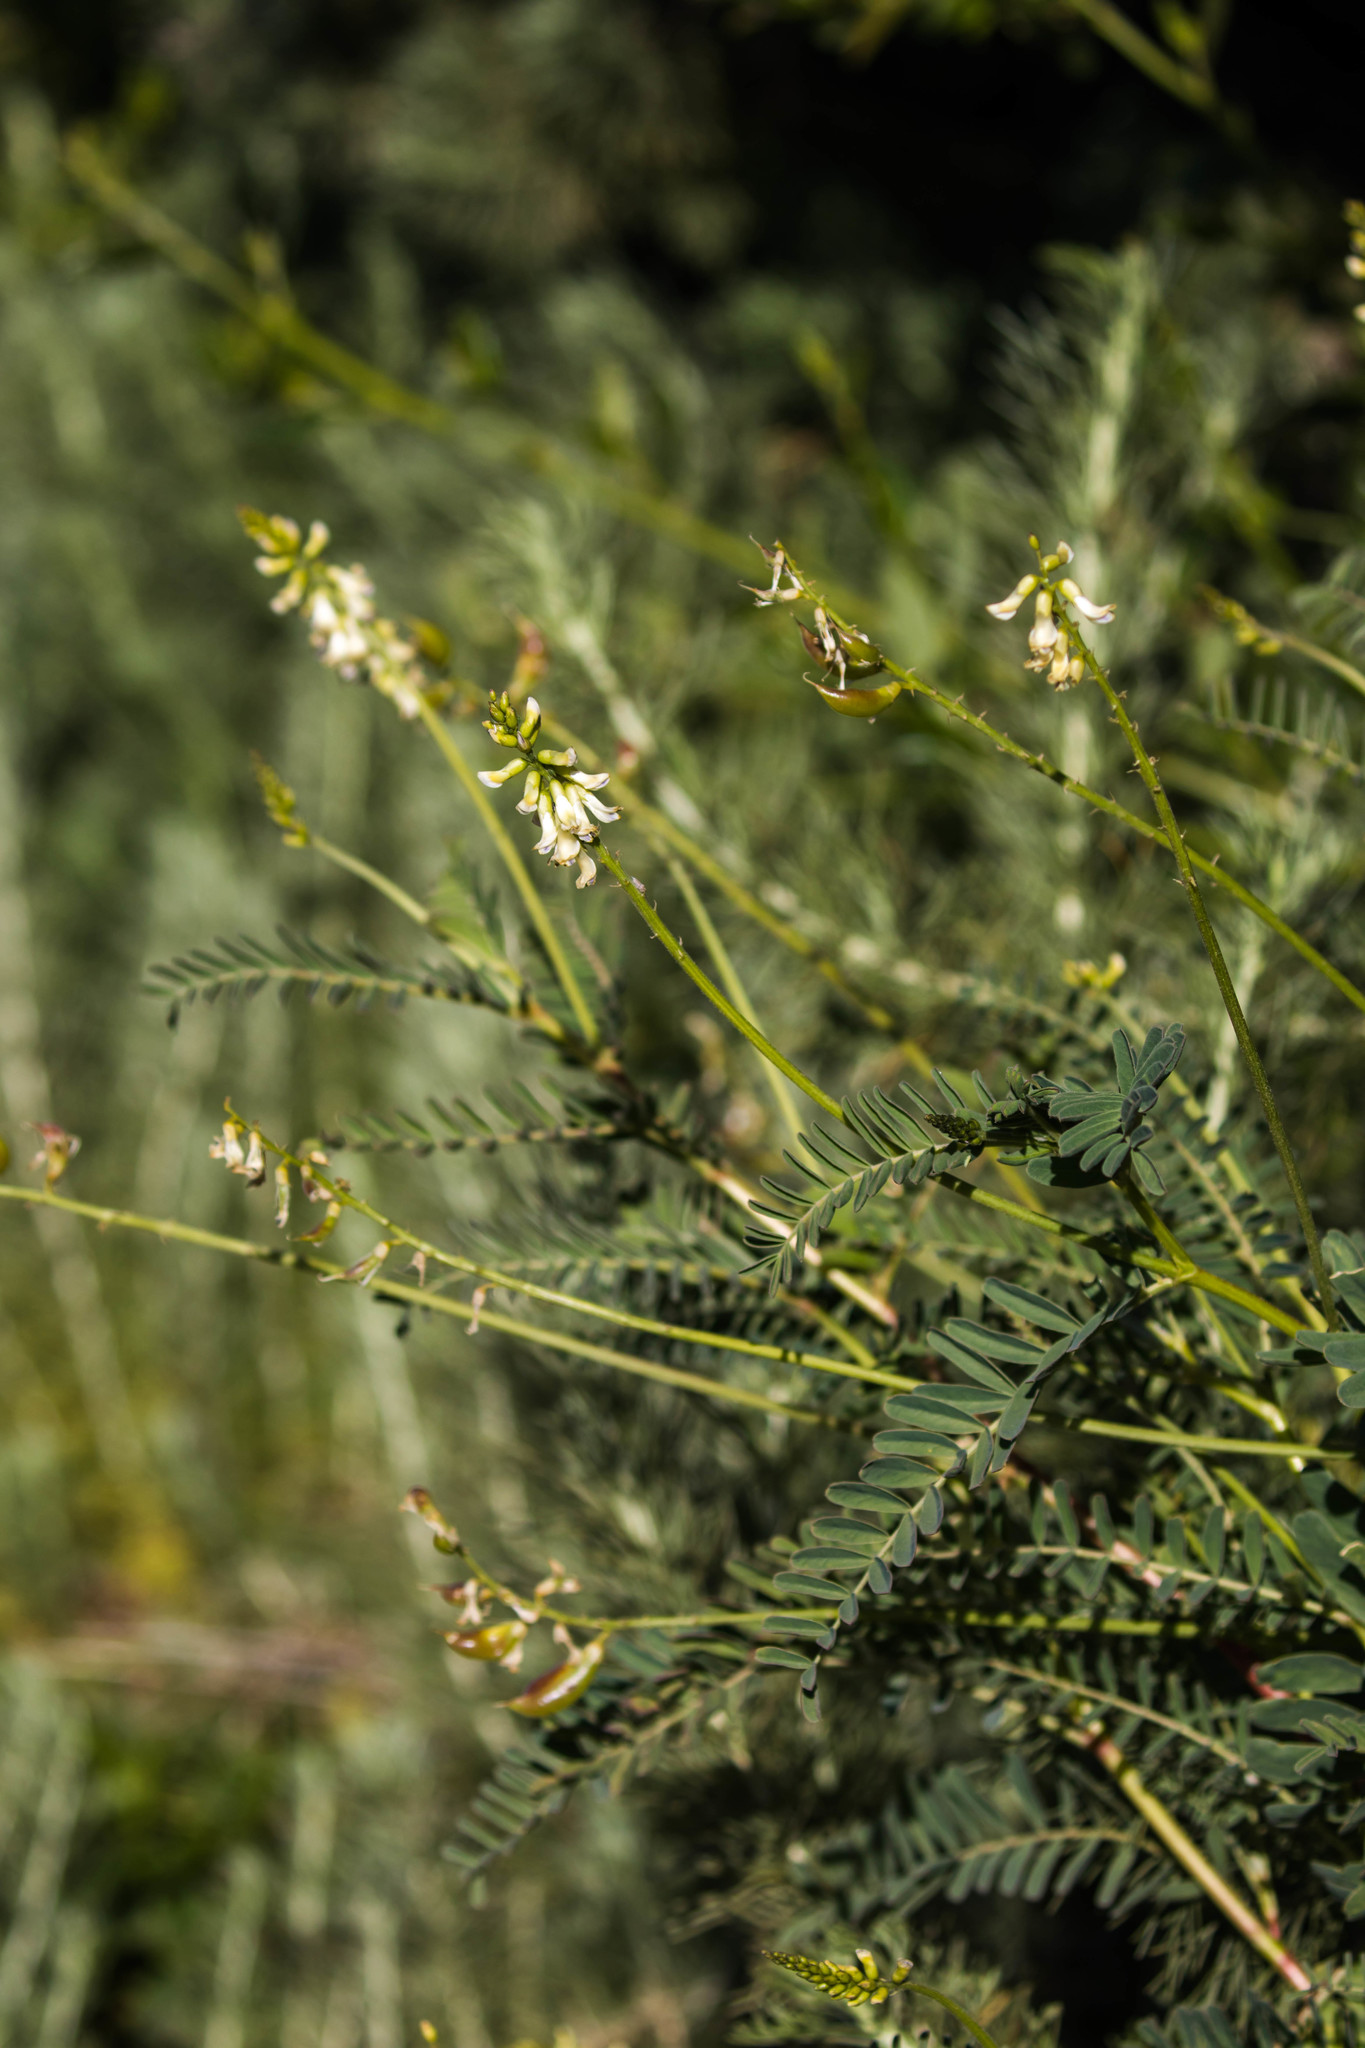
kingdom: Plantae
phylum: Tracheophyta
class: Magnoliopsida
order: Fabales
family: Fabaceae
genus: Astragalus
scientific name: Astragalus nuttallii
